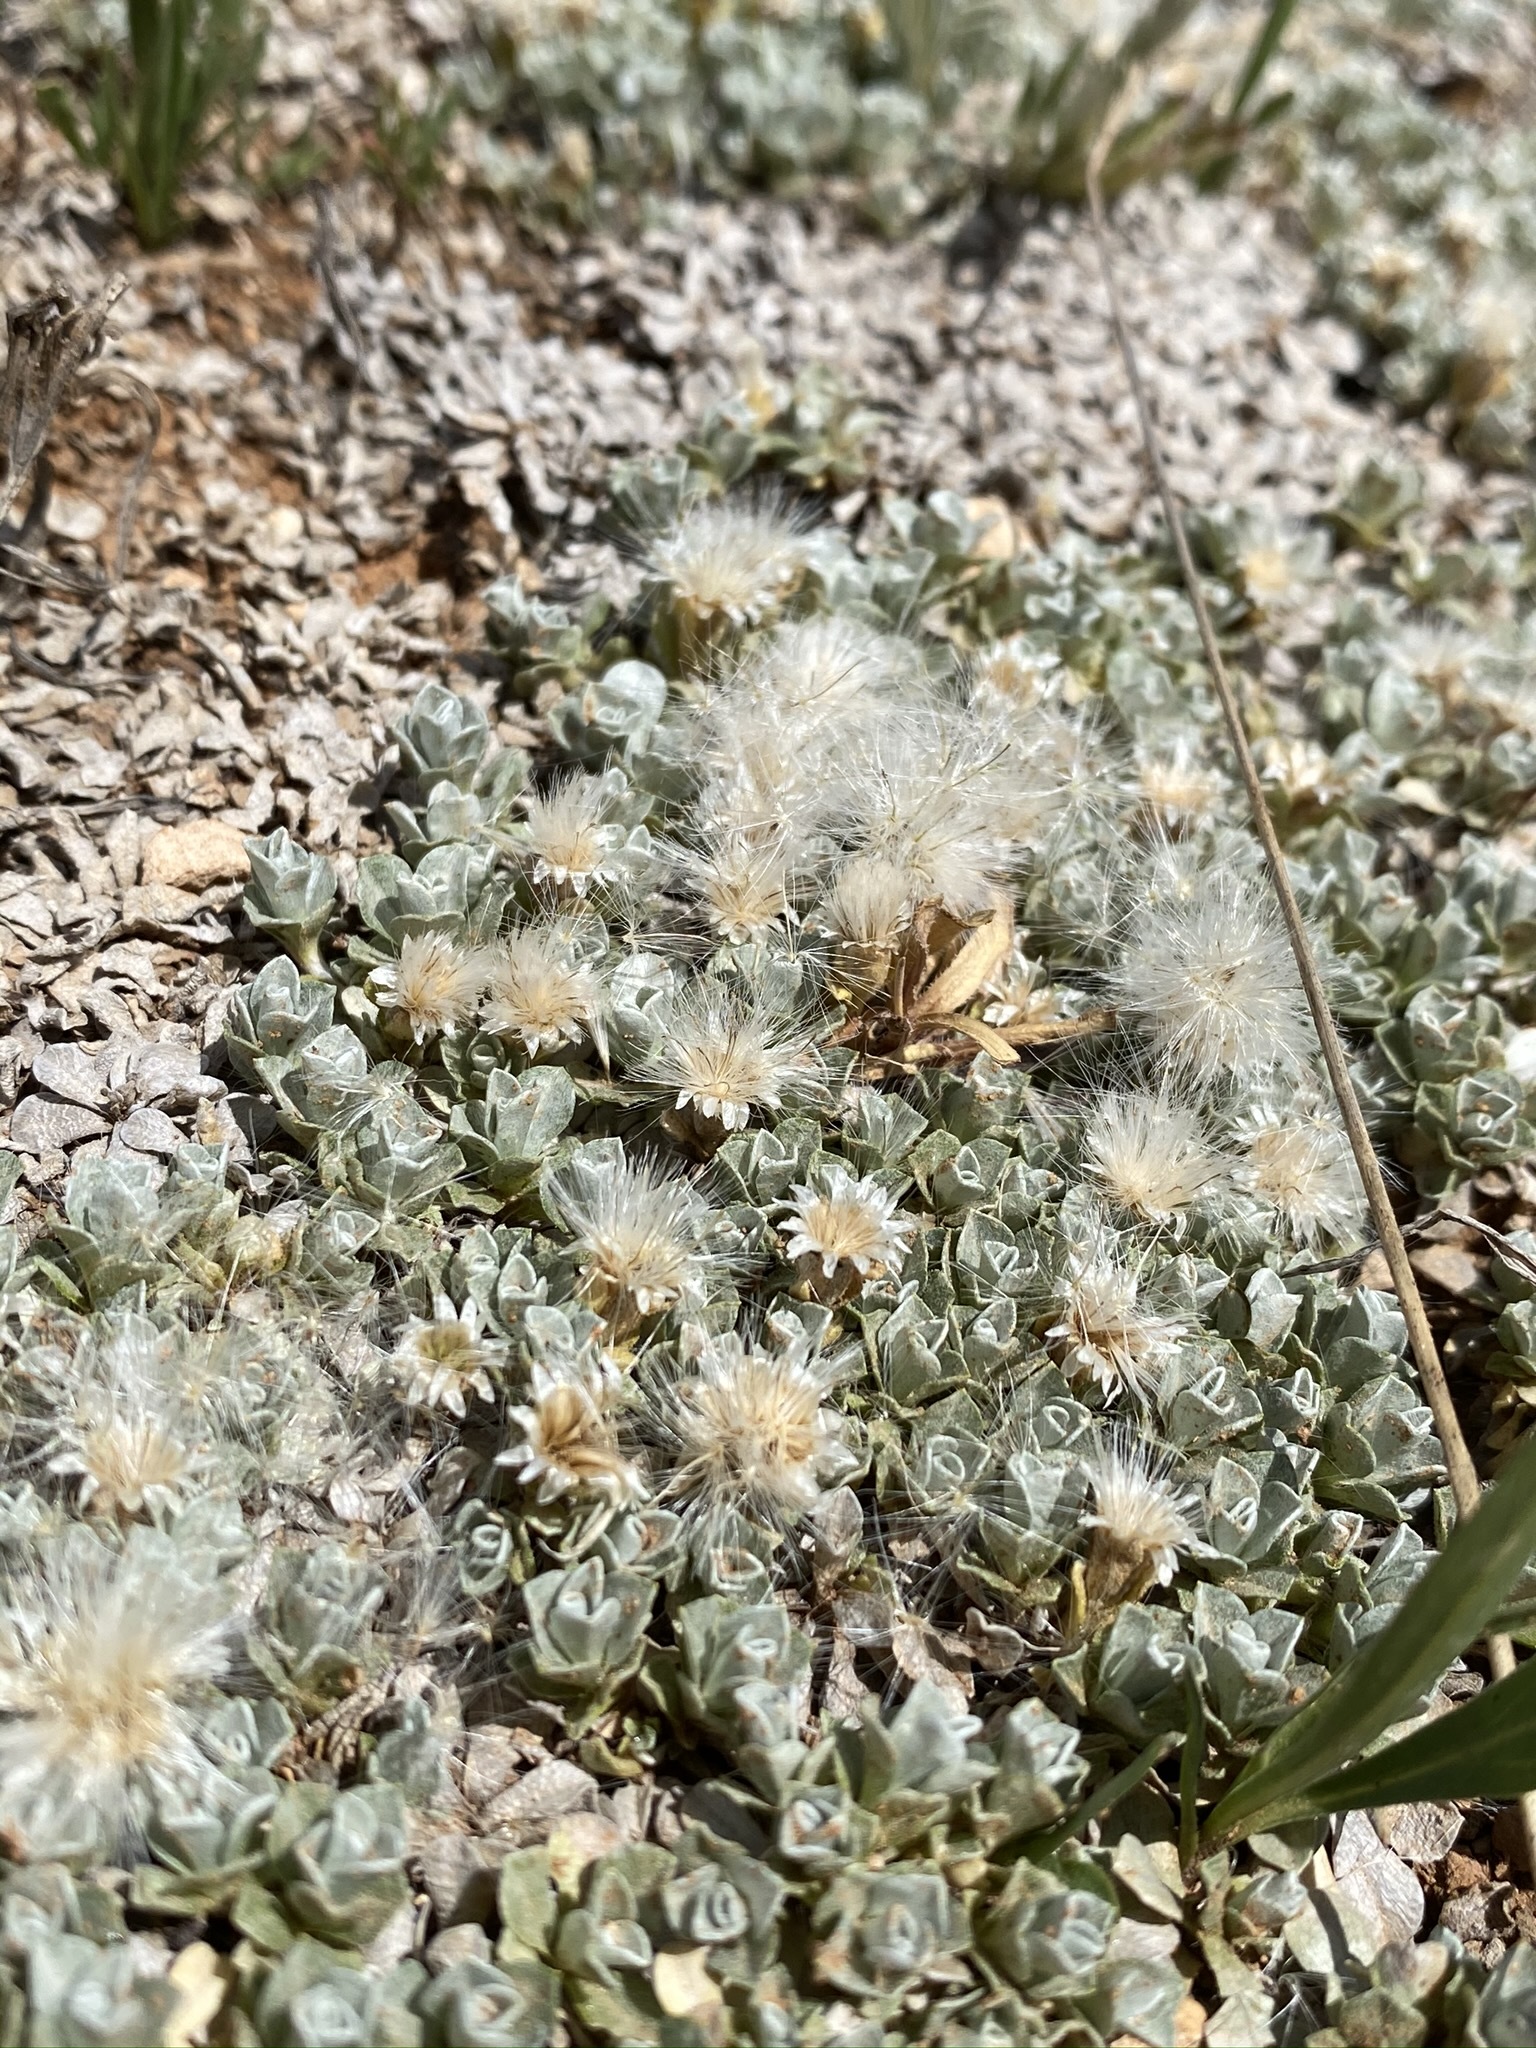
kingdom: Plantae
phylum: Tracheophyta
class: Magnoliopsida
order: Asterales
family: Asteraceae
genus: Antennaria
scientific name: Antennaria rosulata
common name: Woolly pussytoes
